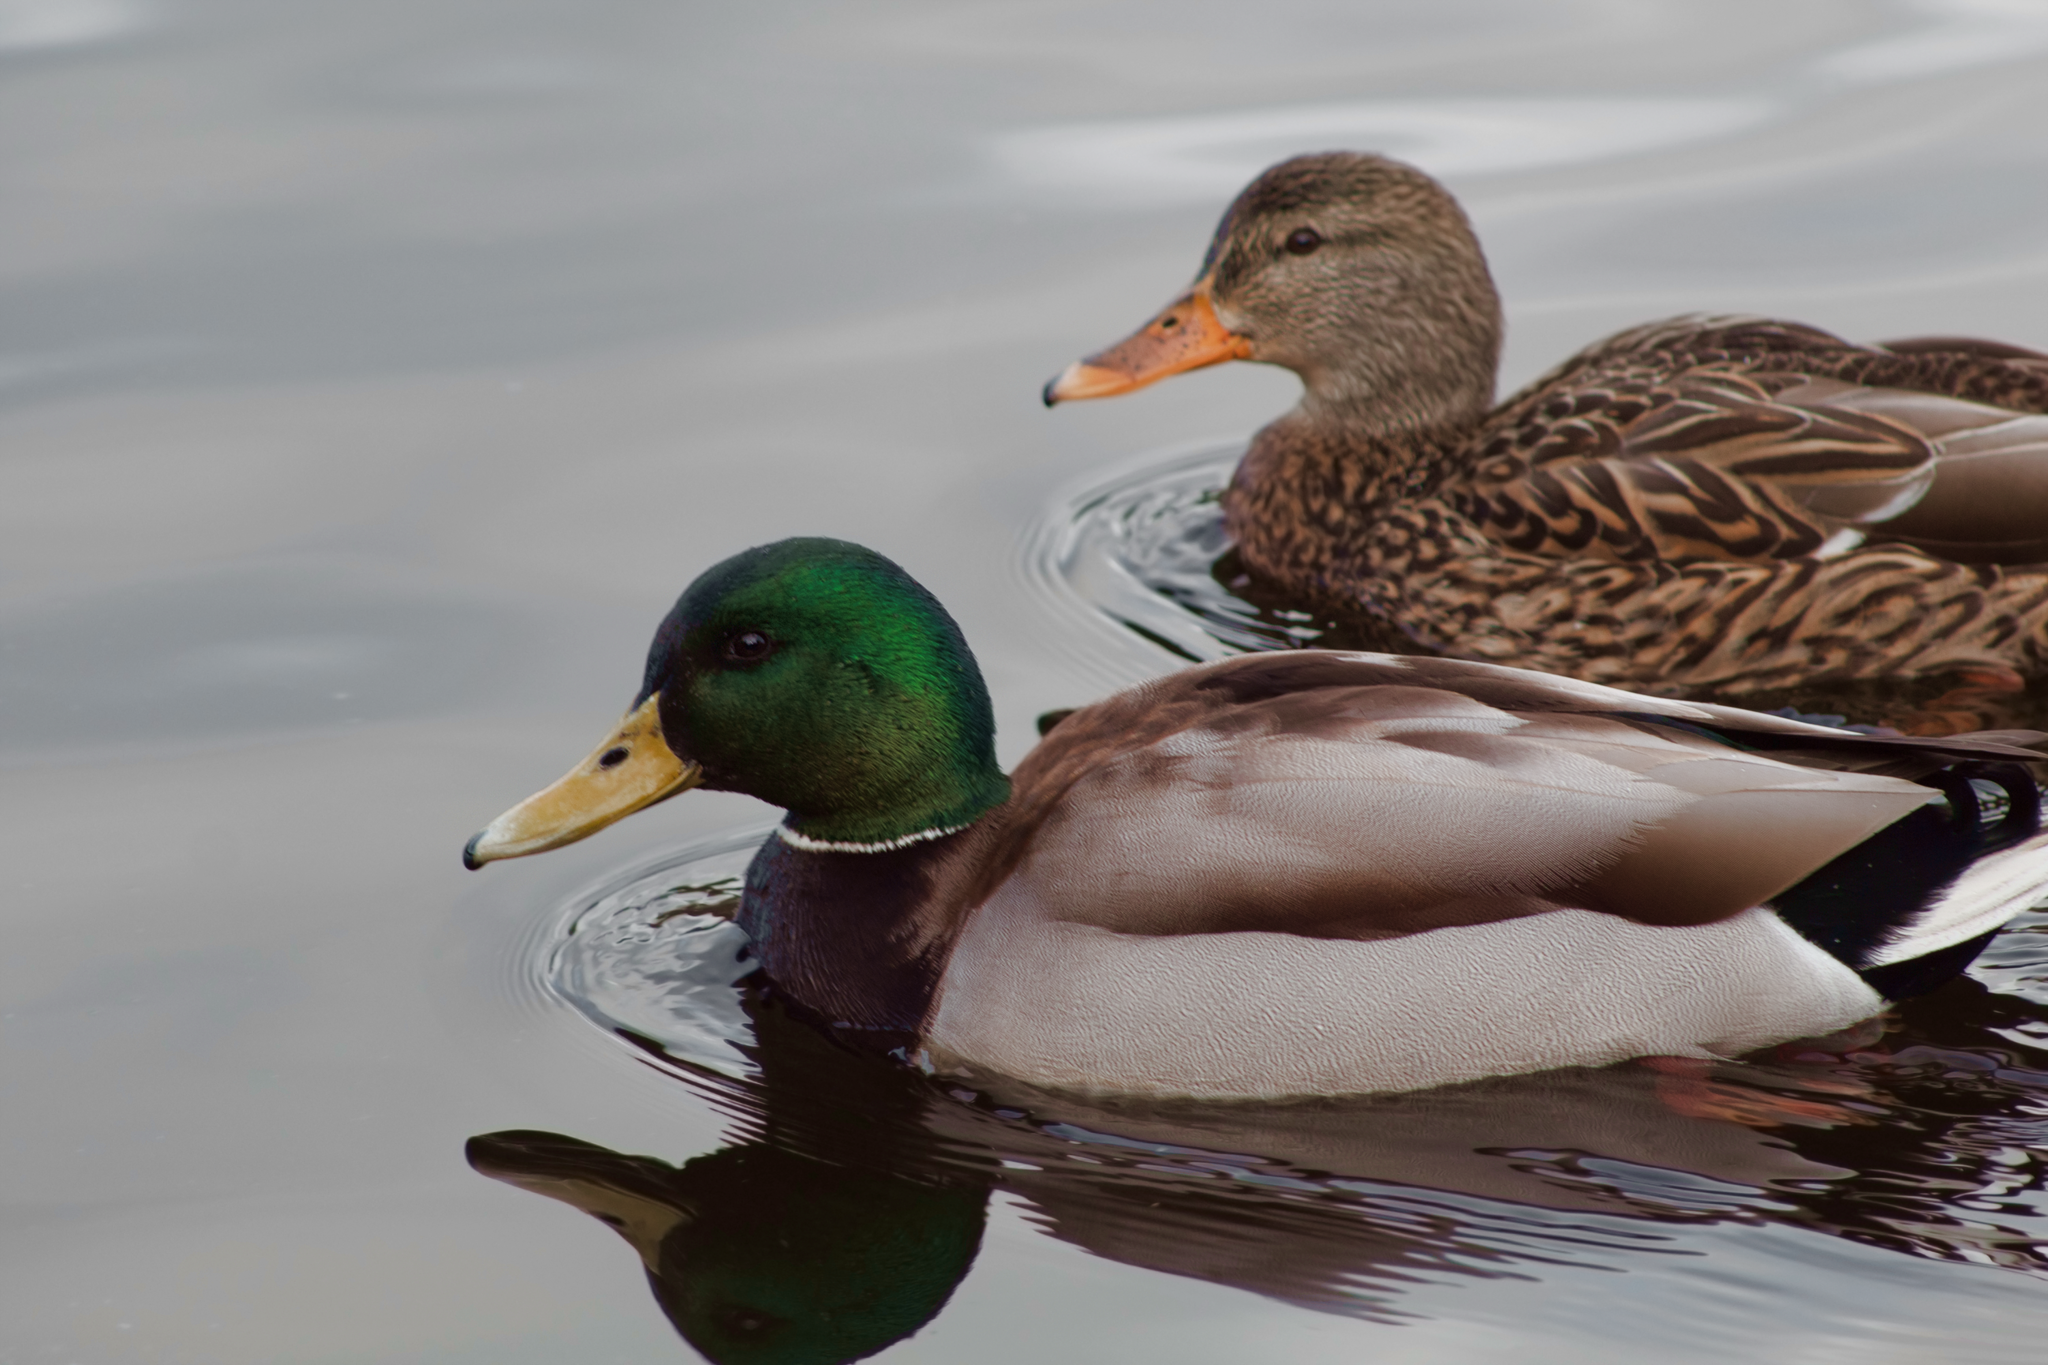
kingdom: Animalia
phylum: Chordata
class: Aves
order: Anseriformes
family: Anatidae
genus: Anas
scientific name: Anas platyrhynchos
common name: Mallard
